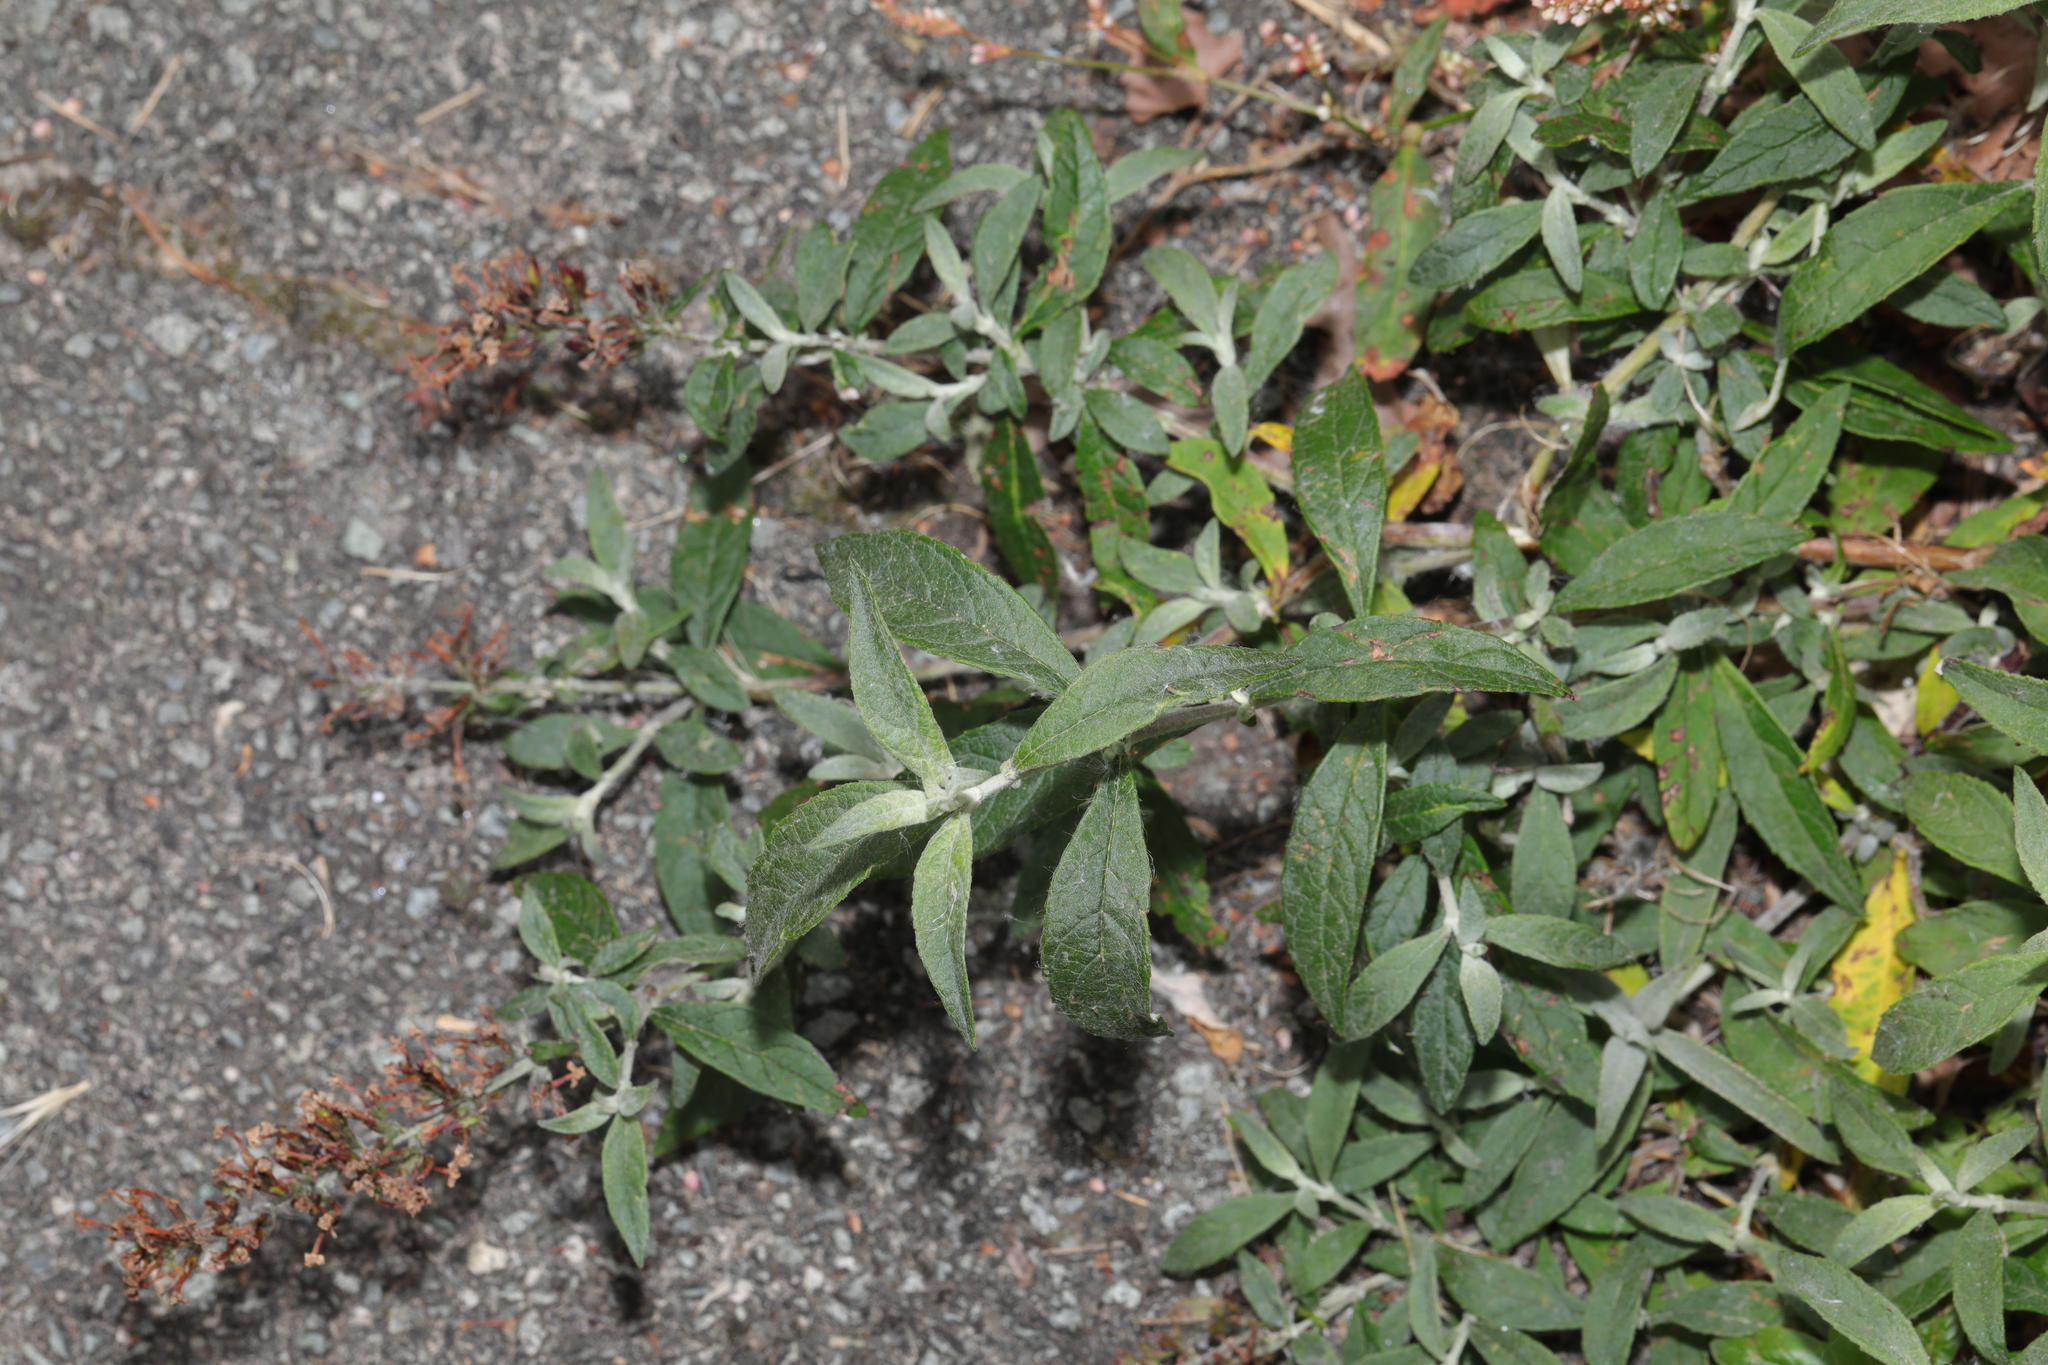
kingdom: Plantae
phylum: Tracheophyta
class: Magnoliopsida
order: Lamiales
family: Scrophulariaceae
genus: Buddleja
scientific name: Buddleja davidii
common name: Butterfly-bush
